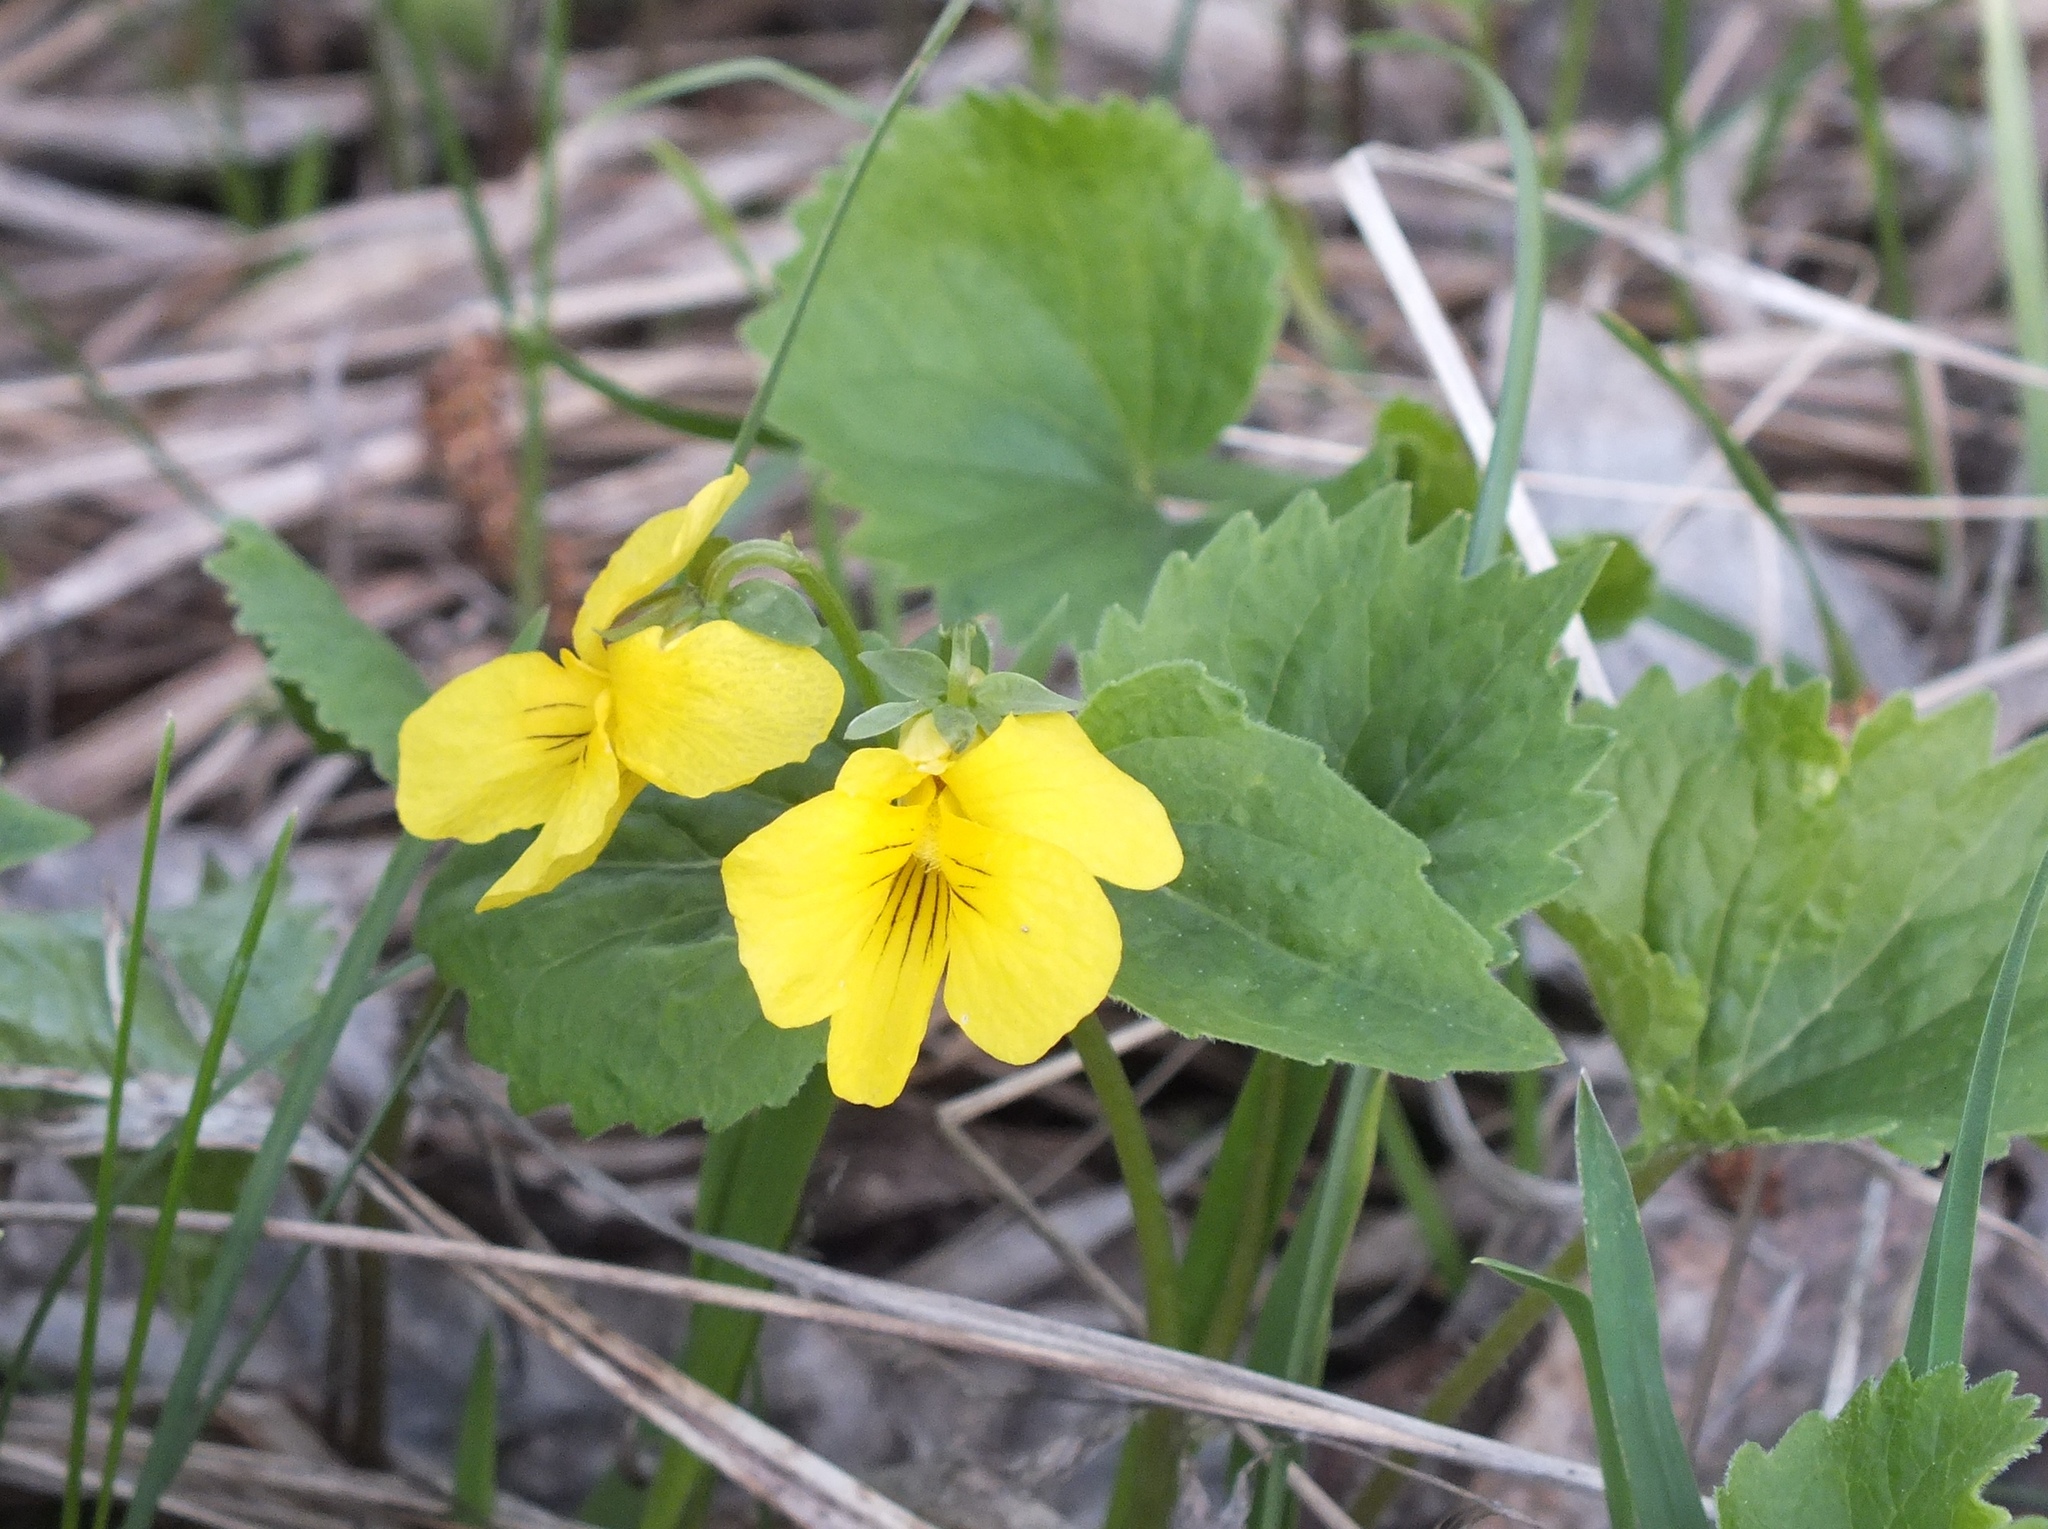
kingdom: Plantae
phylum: Tracheophyta
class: Magnoliopsida
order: Malpighiales
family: Violaceae
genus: Viola
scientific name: Viola uniflora
